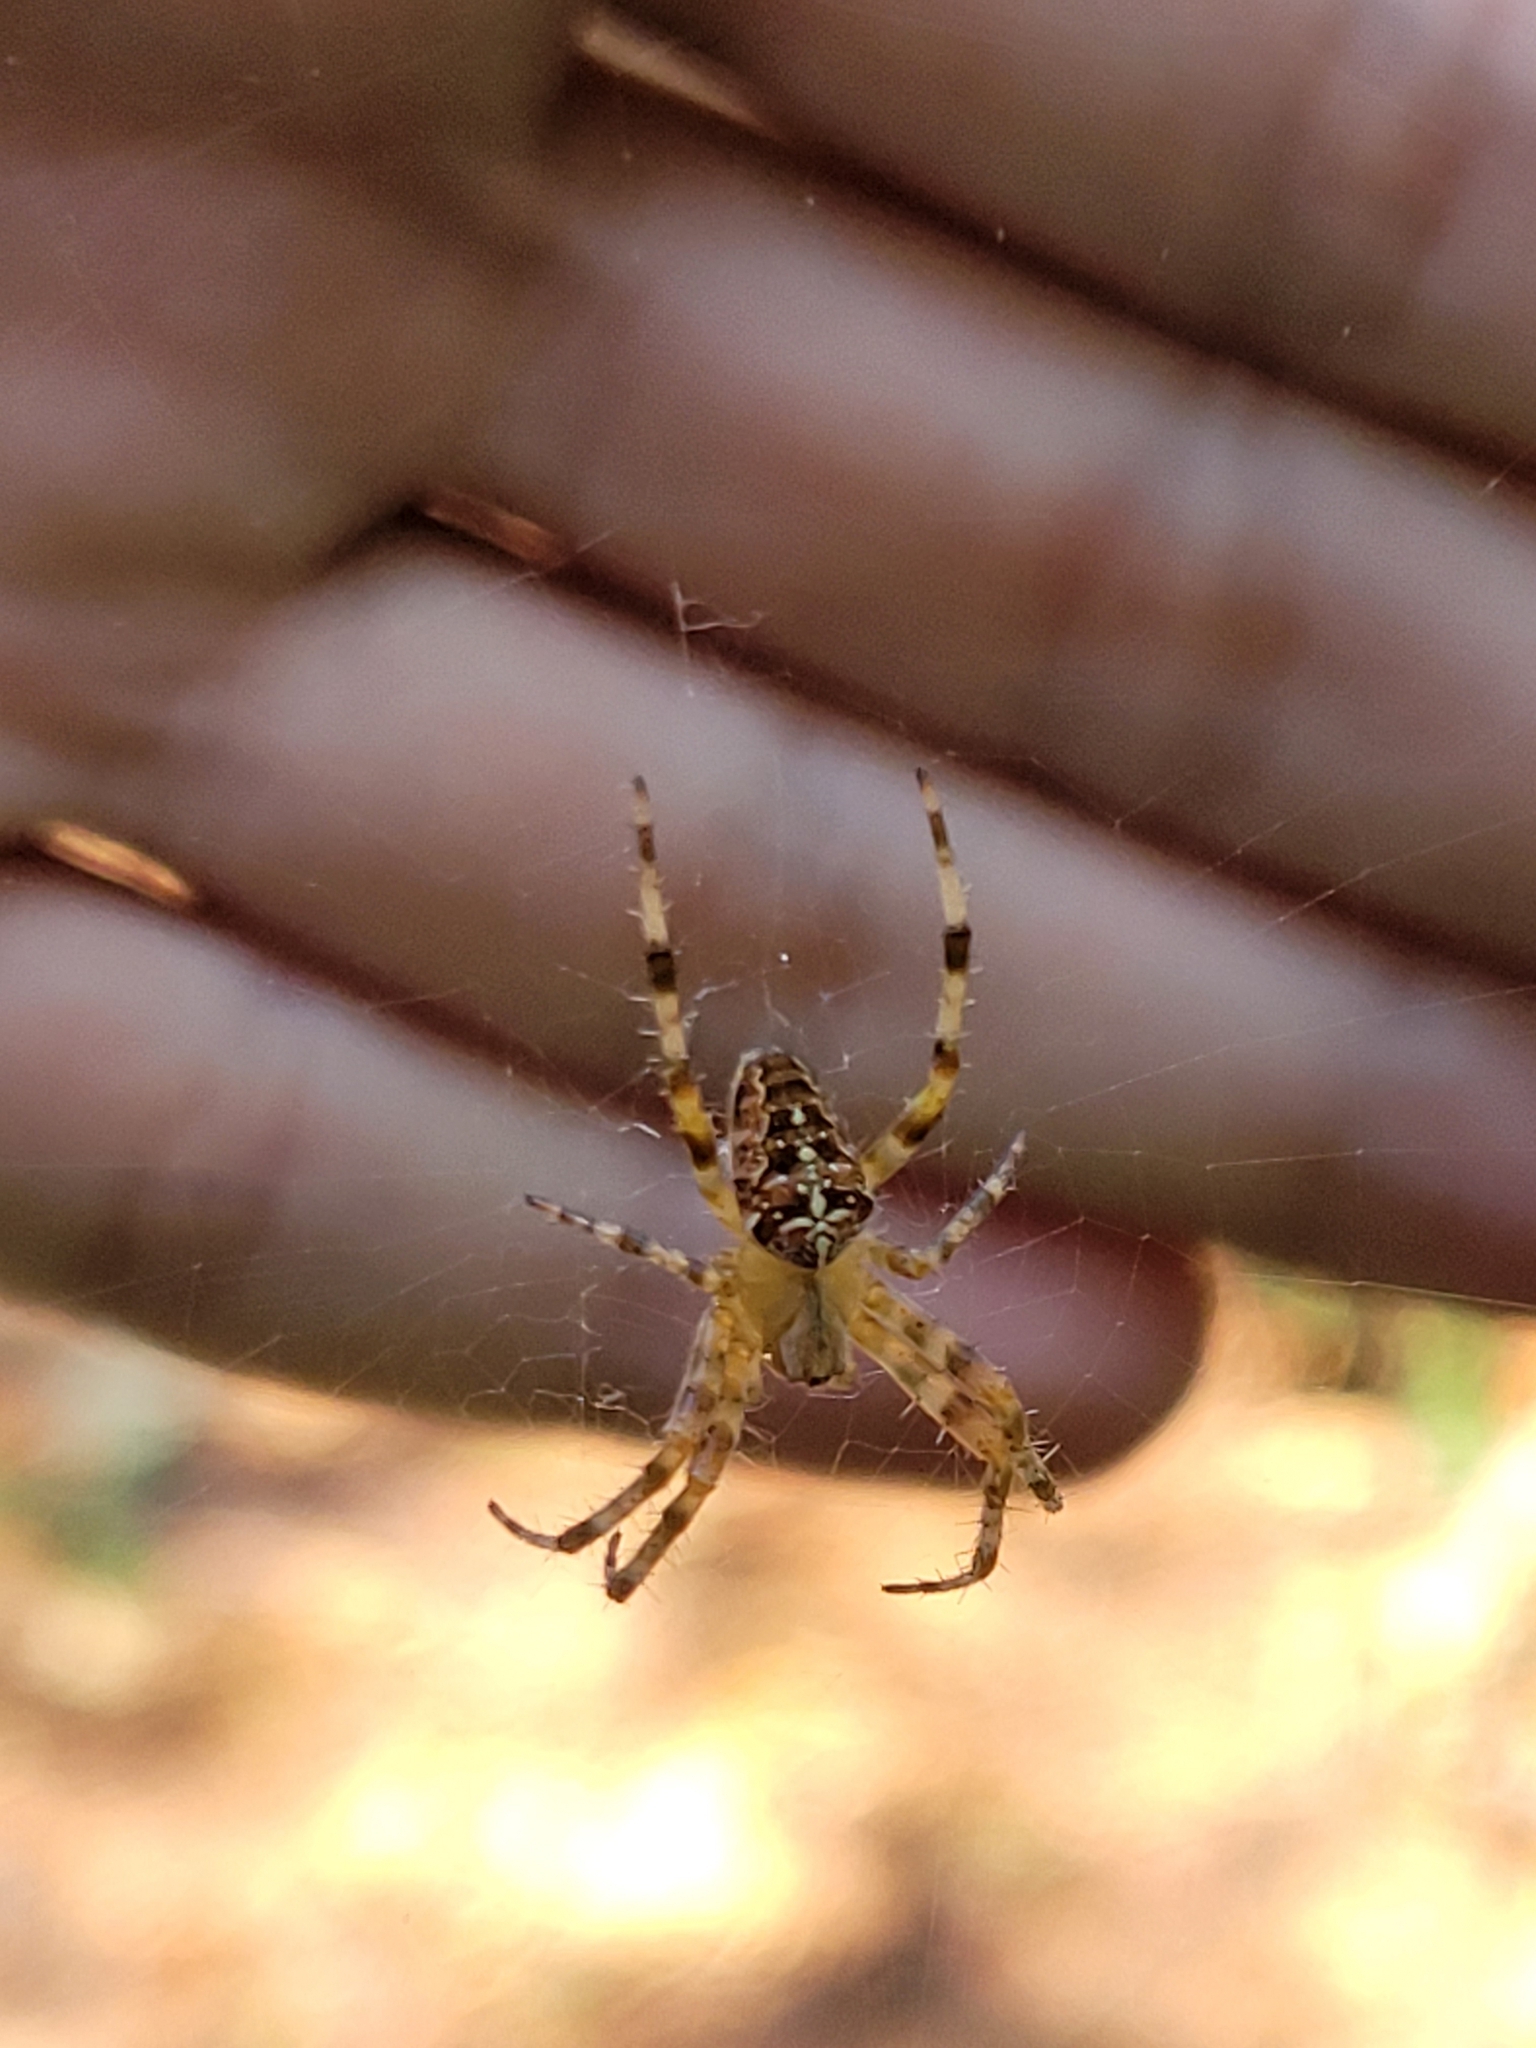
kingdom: Animalia
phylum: Arthropoda
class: Arachnida
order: Araneae
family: Araneidae
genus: Araneus
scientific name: Araneus diadematus
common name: Cross orbweaver
